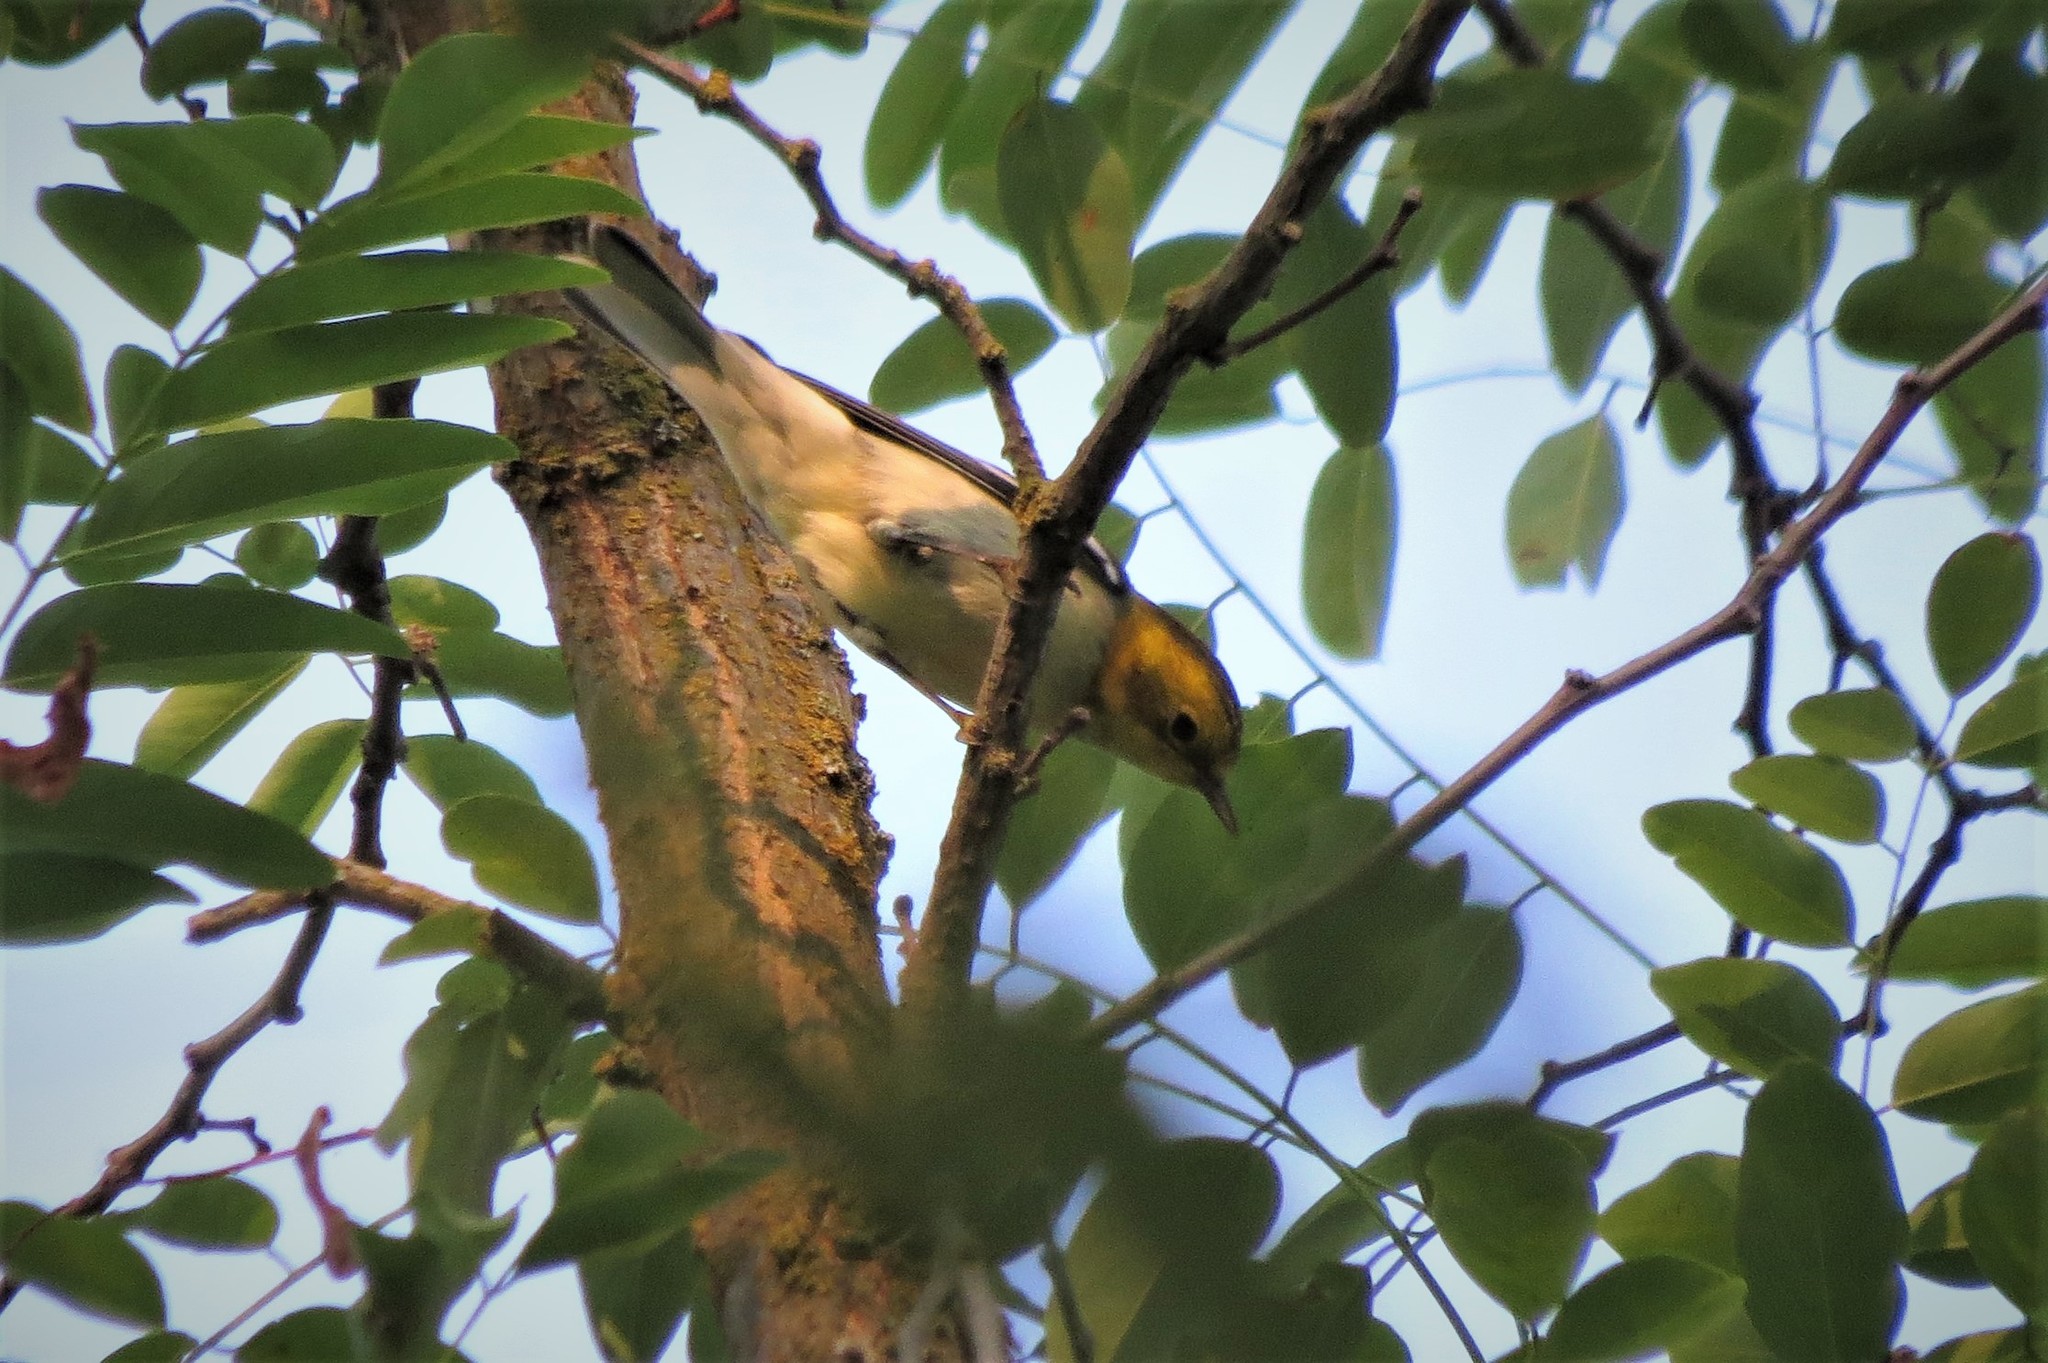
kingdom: Animalia
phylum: Chordata
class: Aves
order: Passeriformes
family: Parulidae
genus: Setophaga
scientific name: Setophaga occidentalis
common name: Hermit warbler
